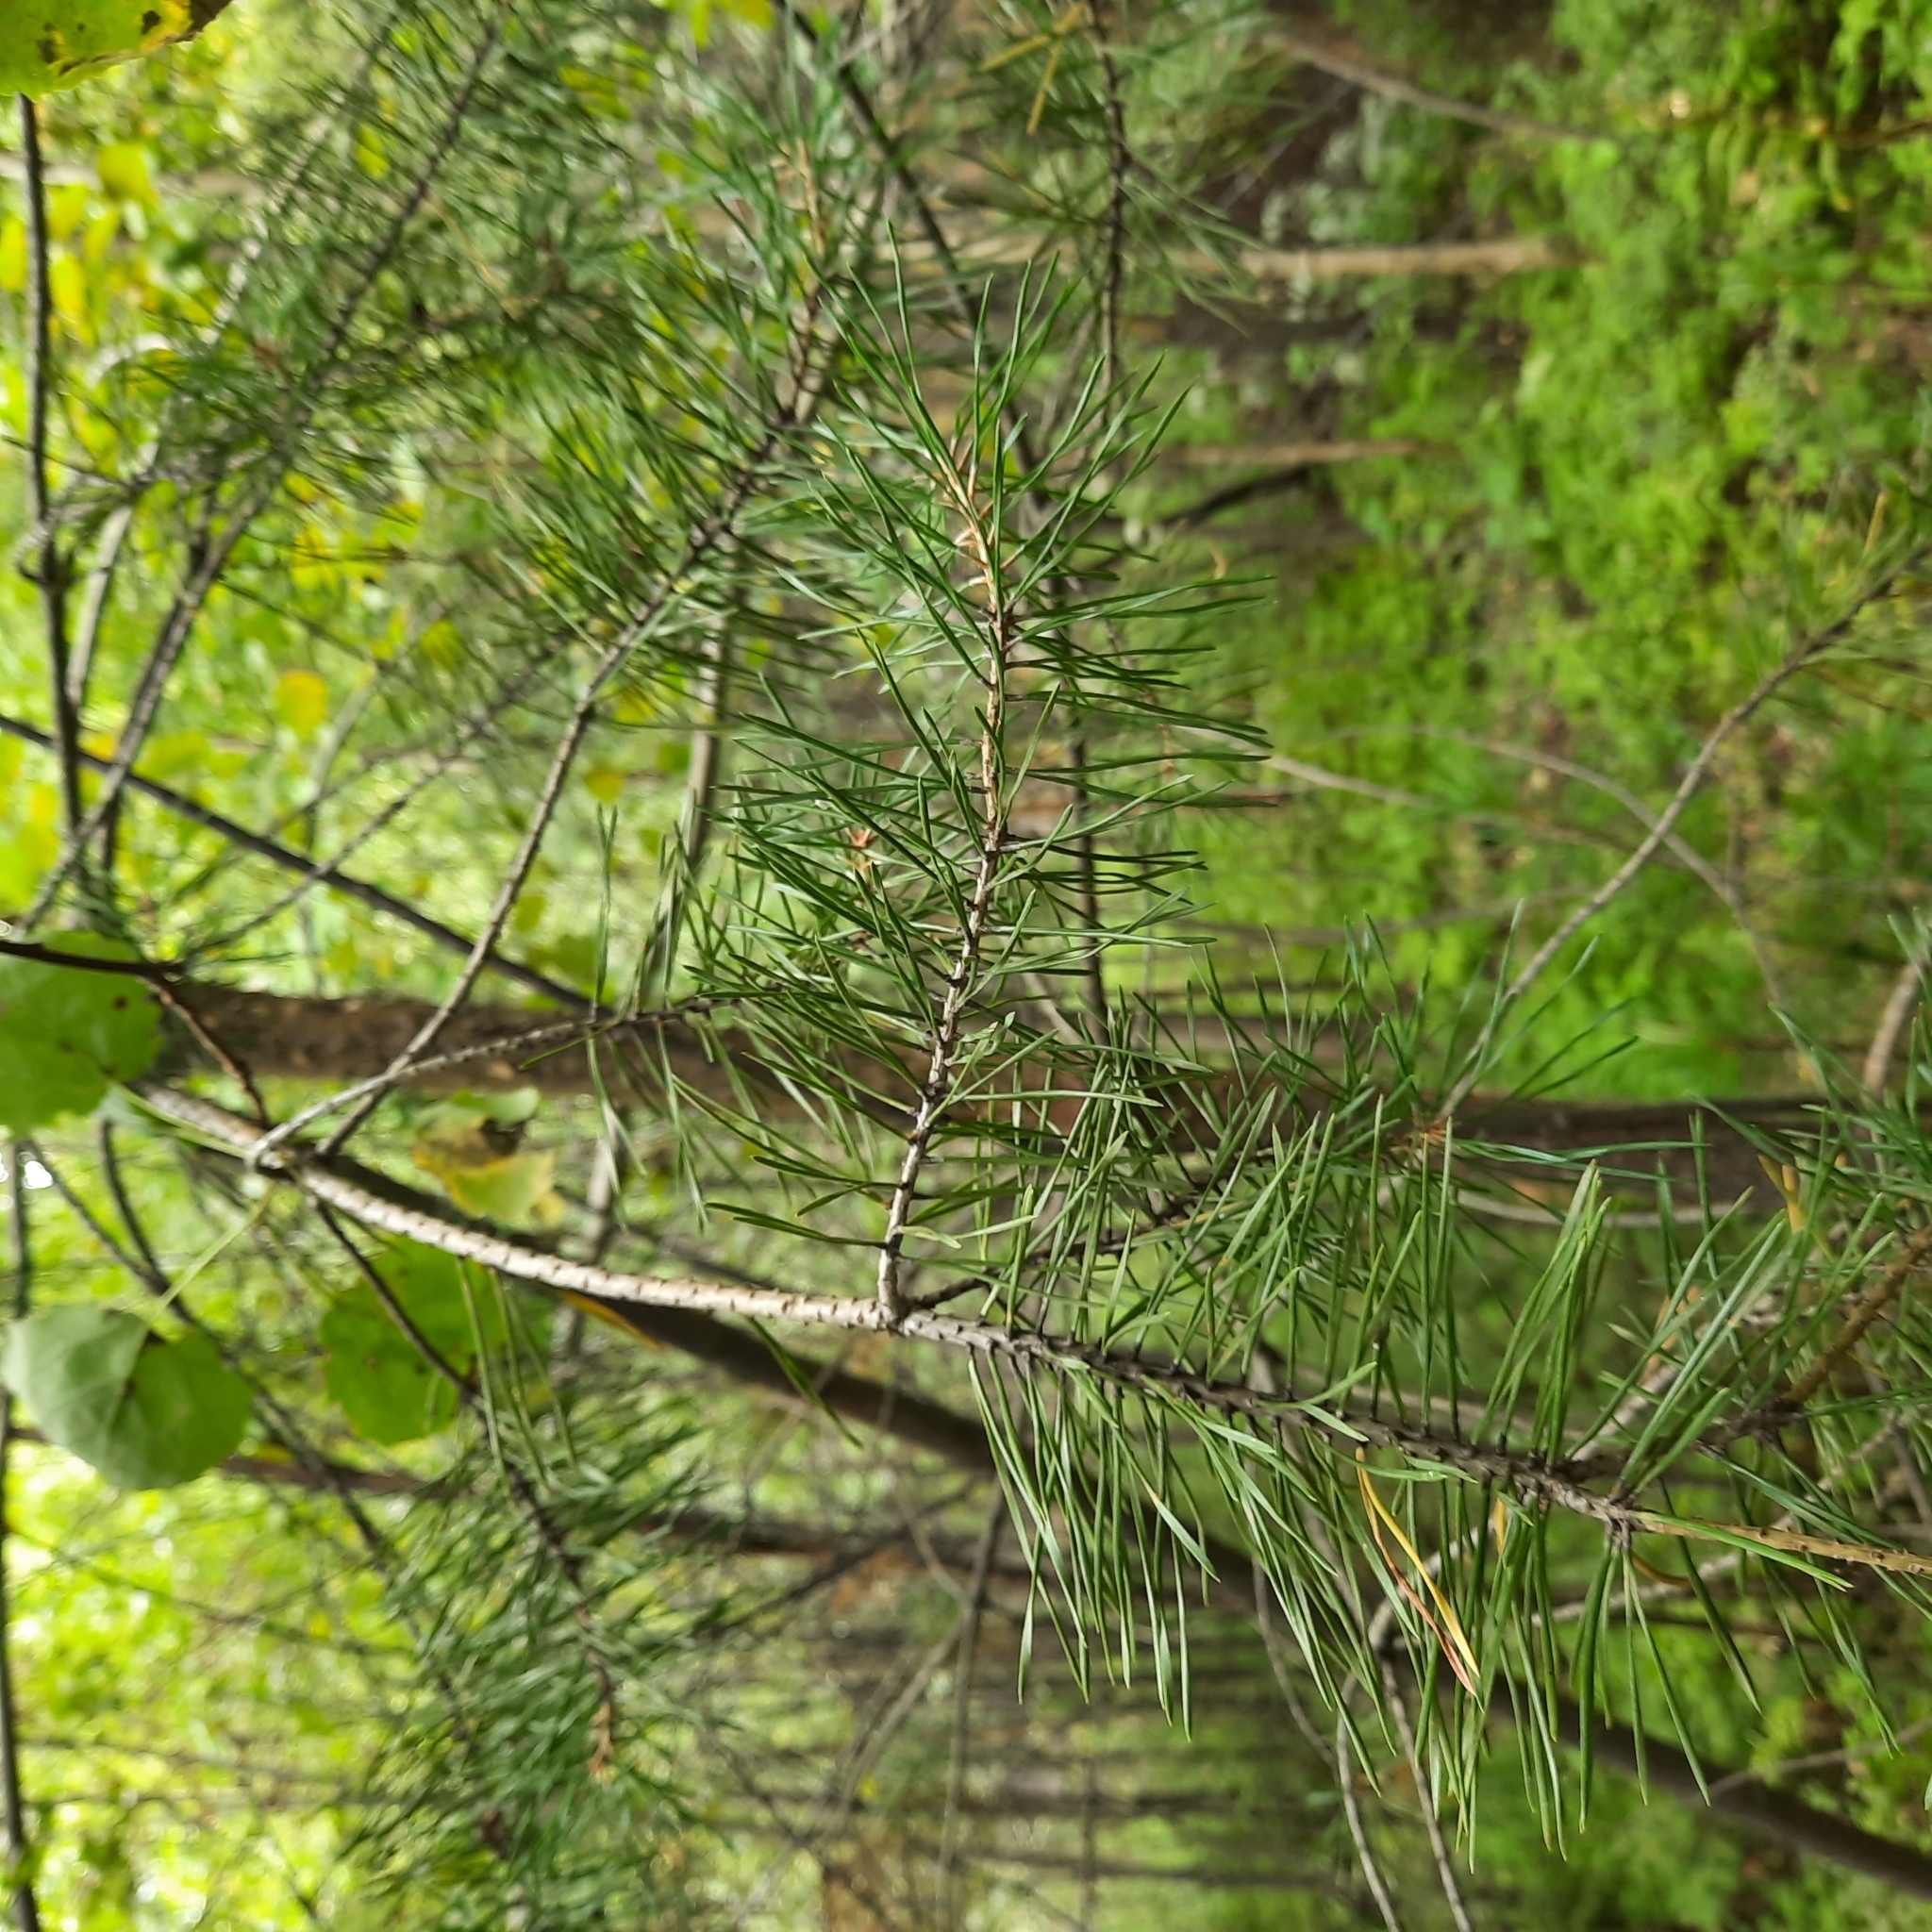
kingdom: Plantae
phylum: Tracheophyta
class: Pinopsida
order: Pinales
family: Pinaceae
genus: Pinus
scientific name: Pinus sylvestris
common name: Scots pine
